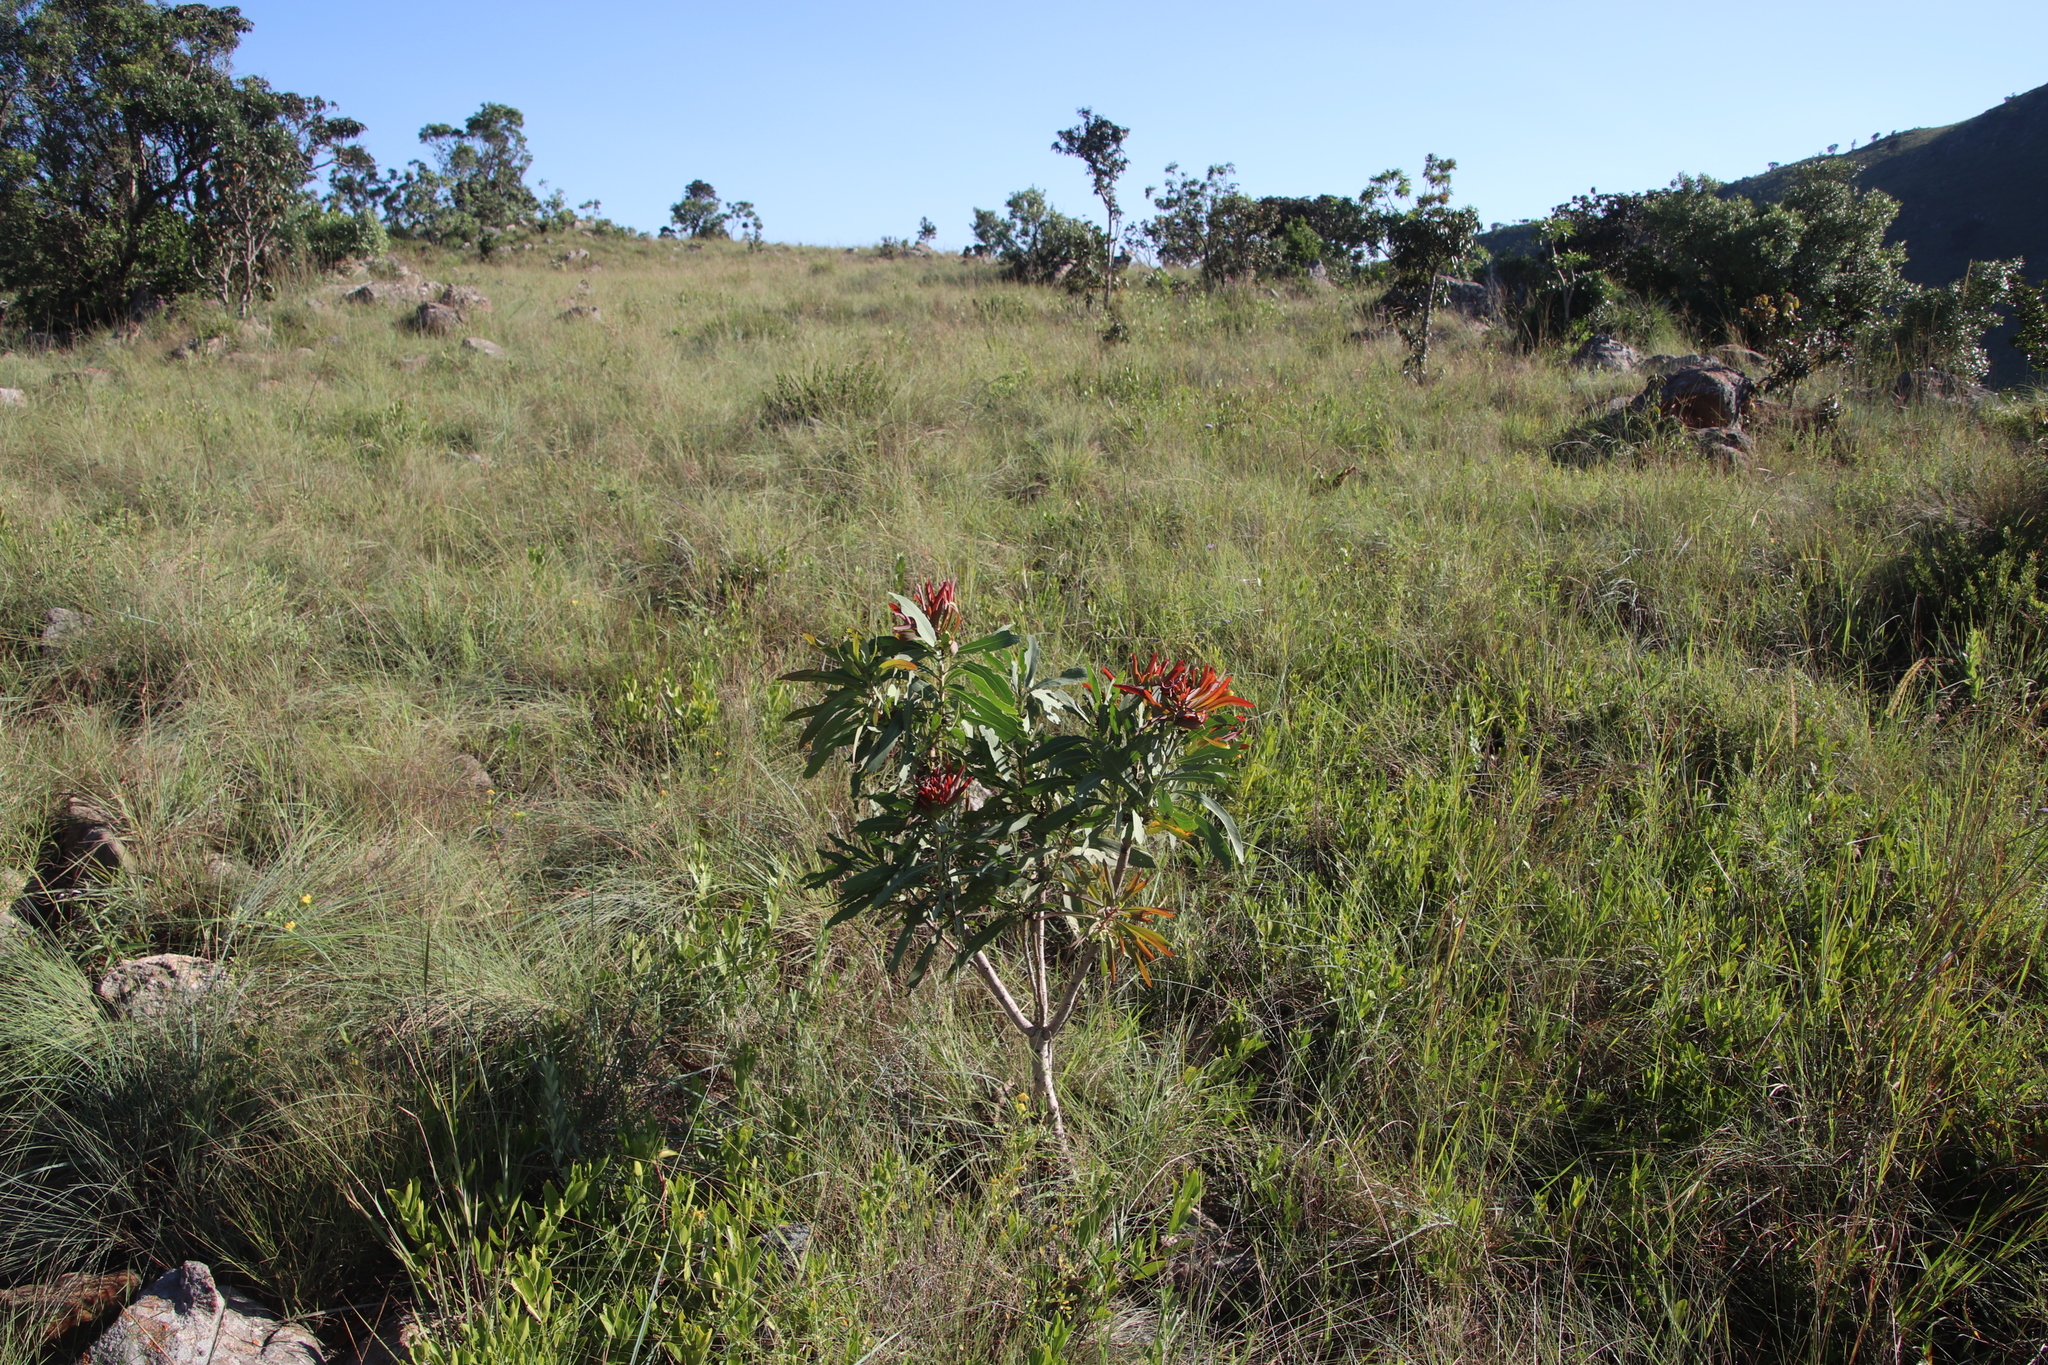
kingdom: Plantae
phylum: Tracheophyta
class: Magnoliopsida
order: Proteales
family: Proteaceae
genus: Protea
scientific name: Protea caffra
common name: Common sugarbush
